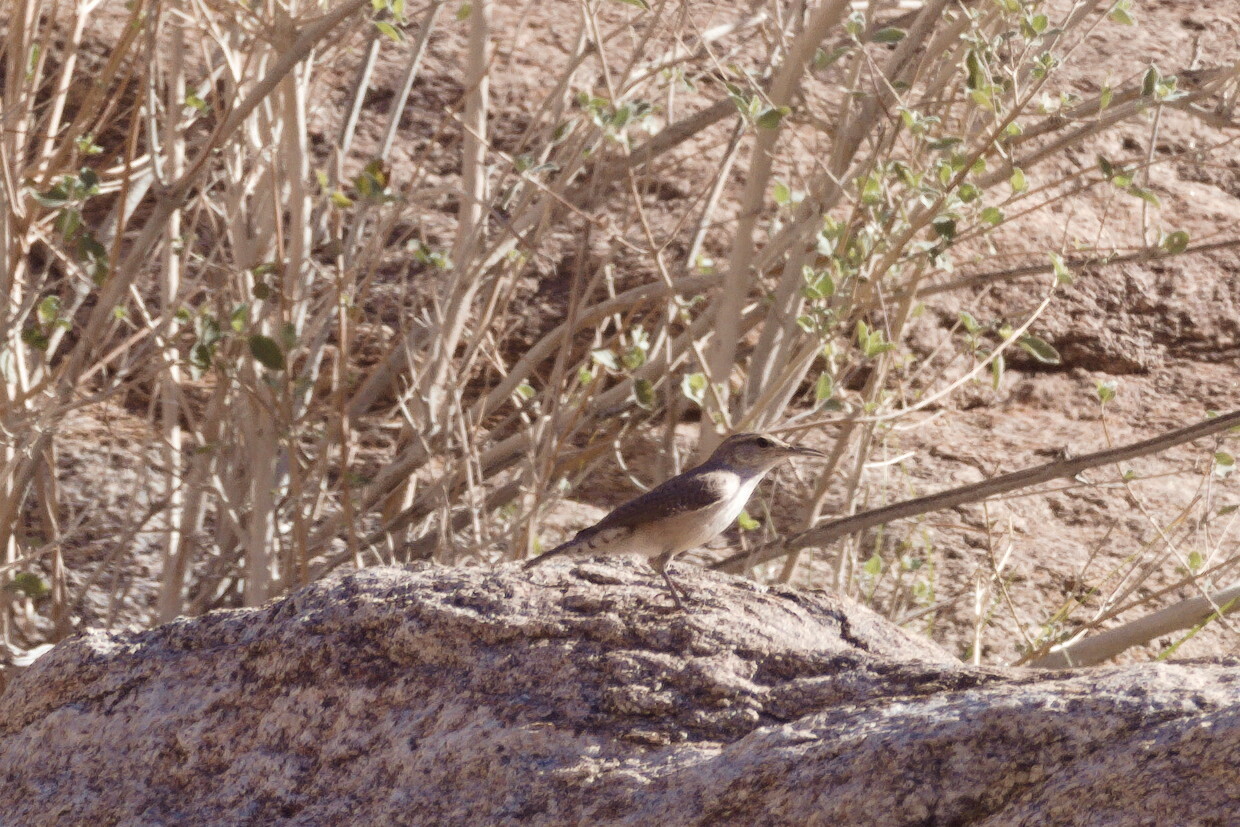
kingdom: Animalia
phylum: Chordata
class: Aves
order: Passeriformes
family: Troglodytidae
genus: Salpinctes
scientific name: Salpinctes obsoletus
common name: Rock wren
